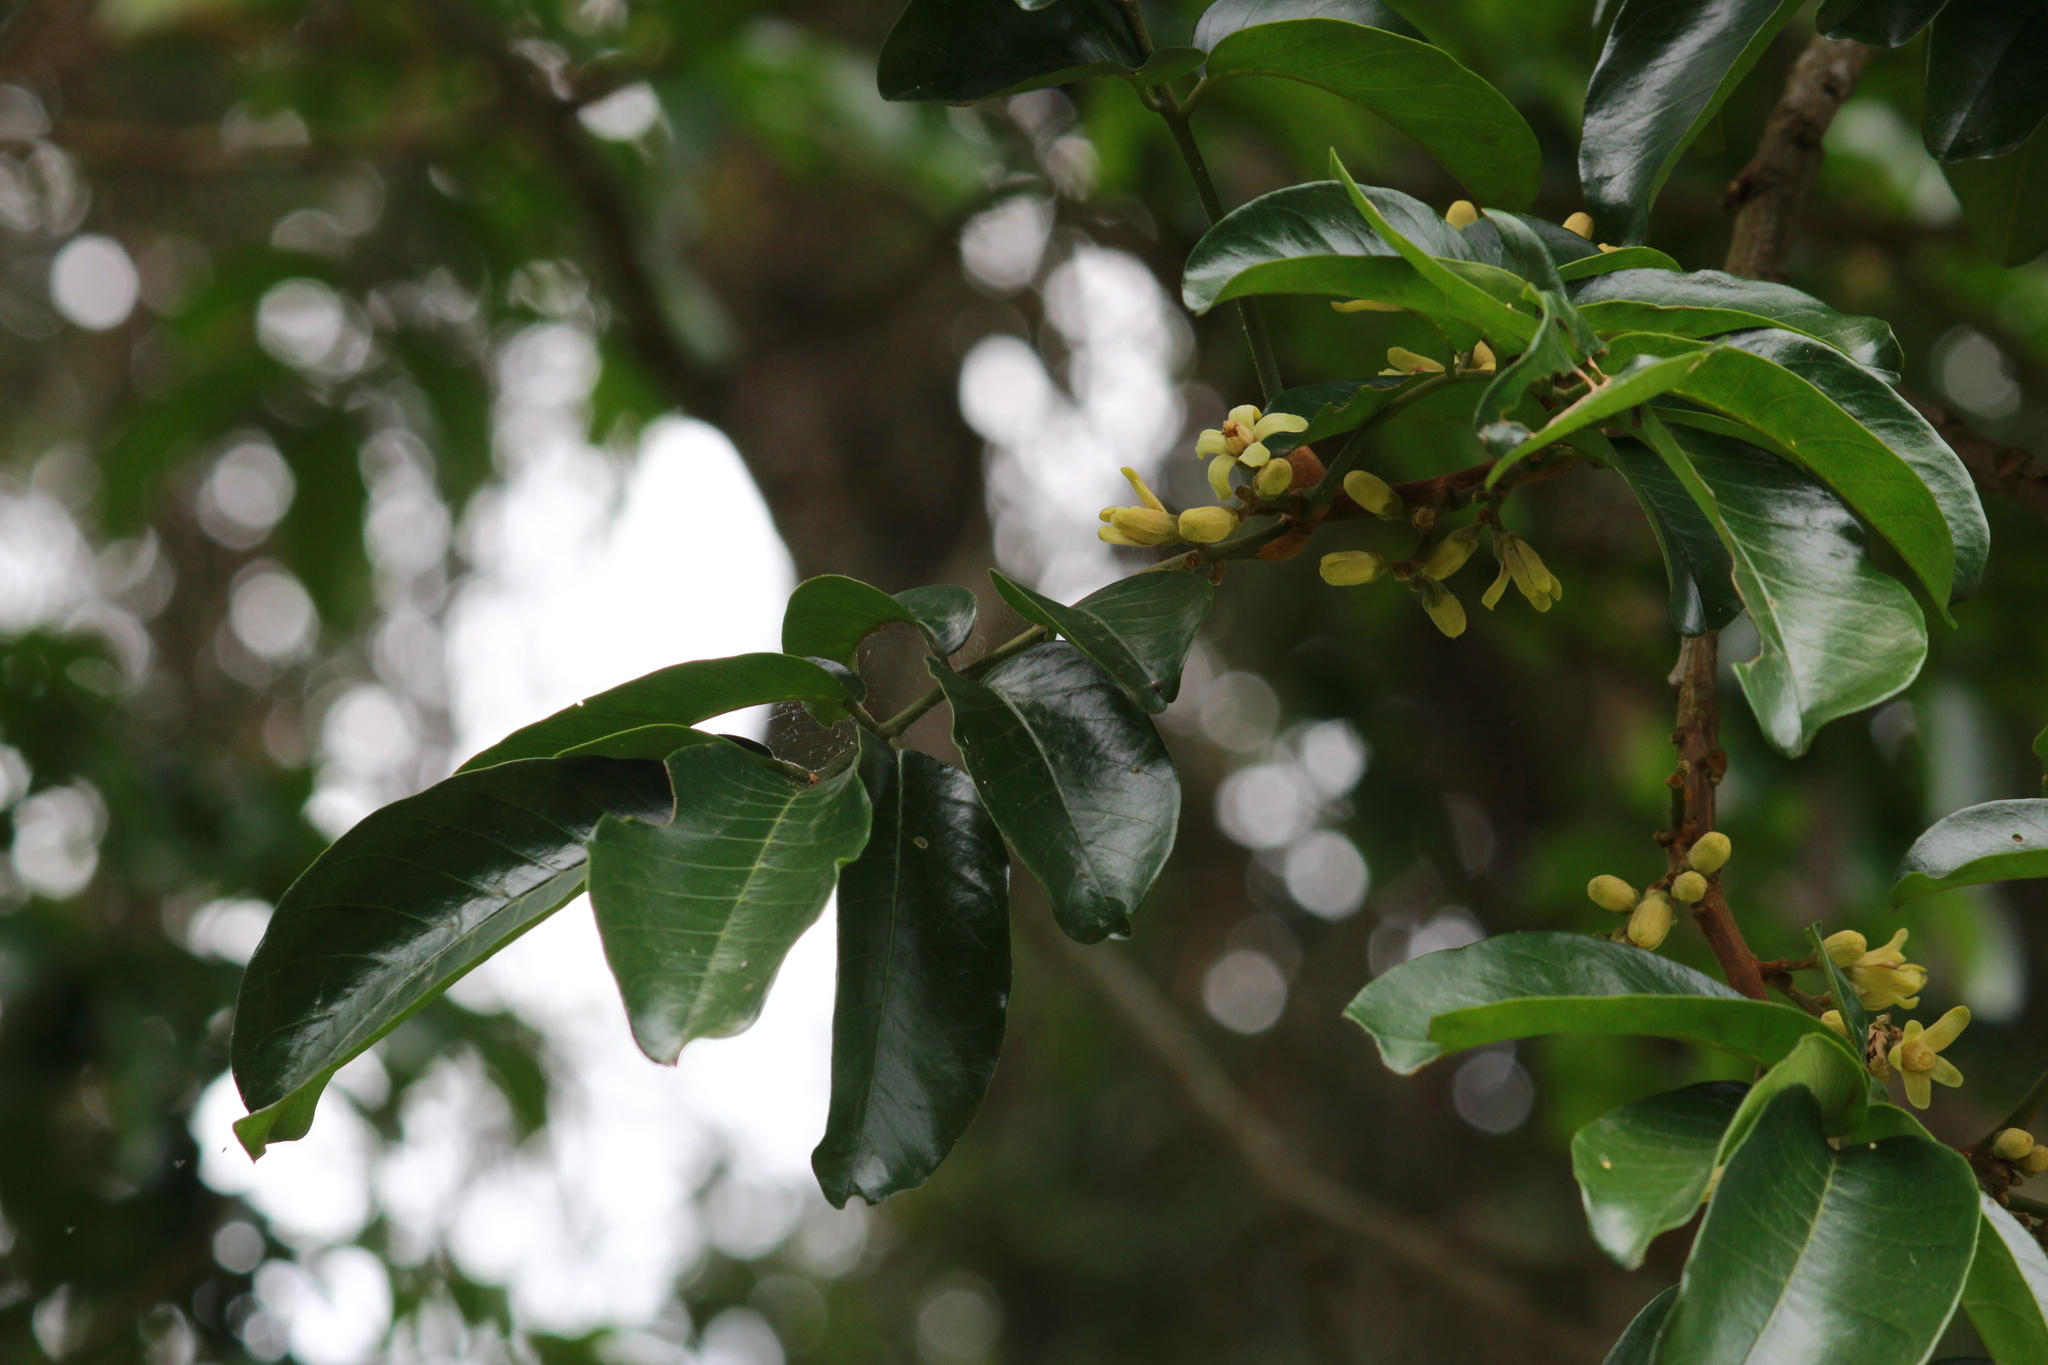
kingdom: Plantae
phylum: Tracheophyta
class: Magnoliopsida
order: Sapindales
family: Meliaceae
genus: Trichilia
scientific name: Trichilia dregeana
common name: Christmas-bells
